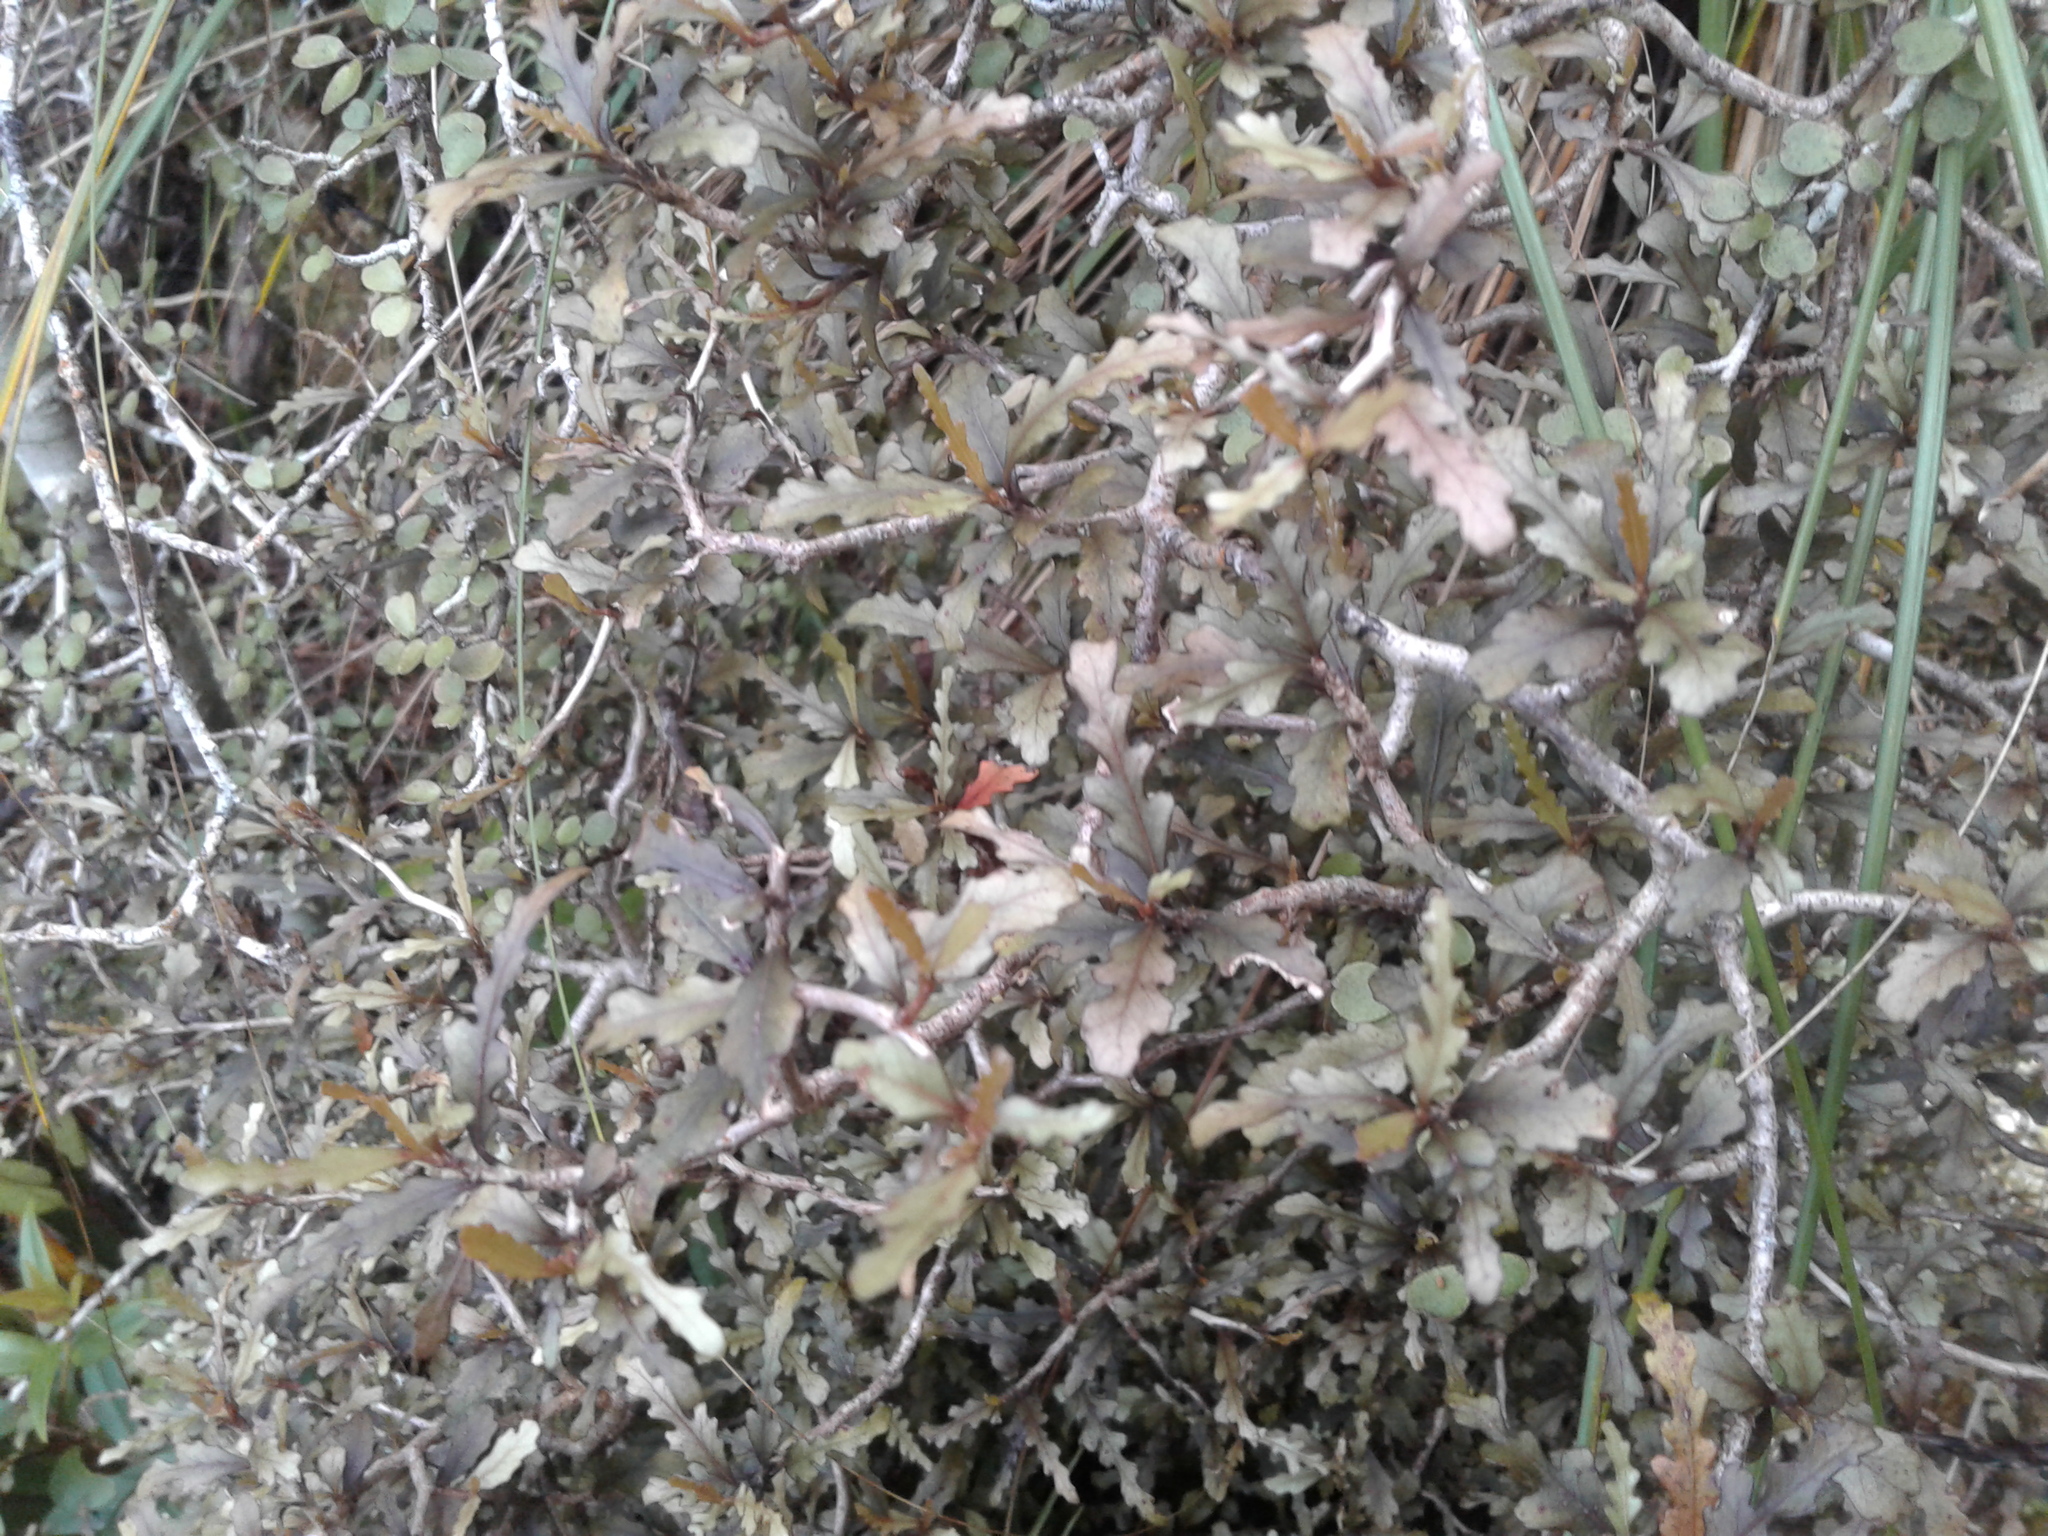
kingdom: Plantae
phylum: Tracheophyta
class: Magnoliopsida
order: Oxalidales
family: Elaeocarpaceae
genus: Elaeocarpus
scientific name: Elaeocarpus hookerianus
